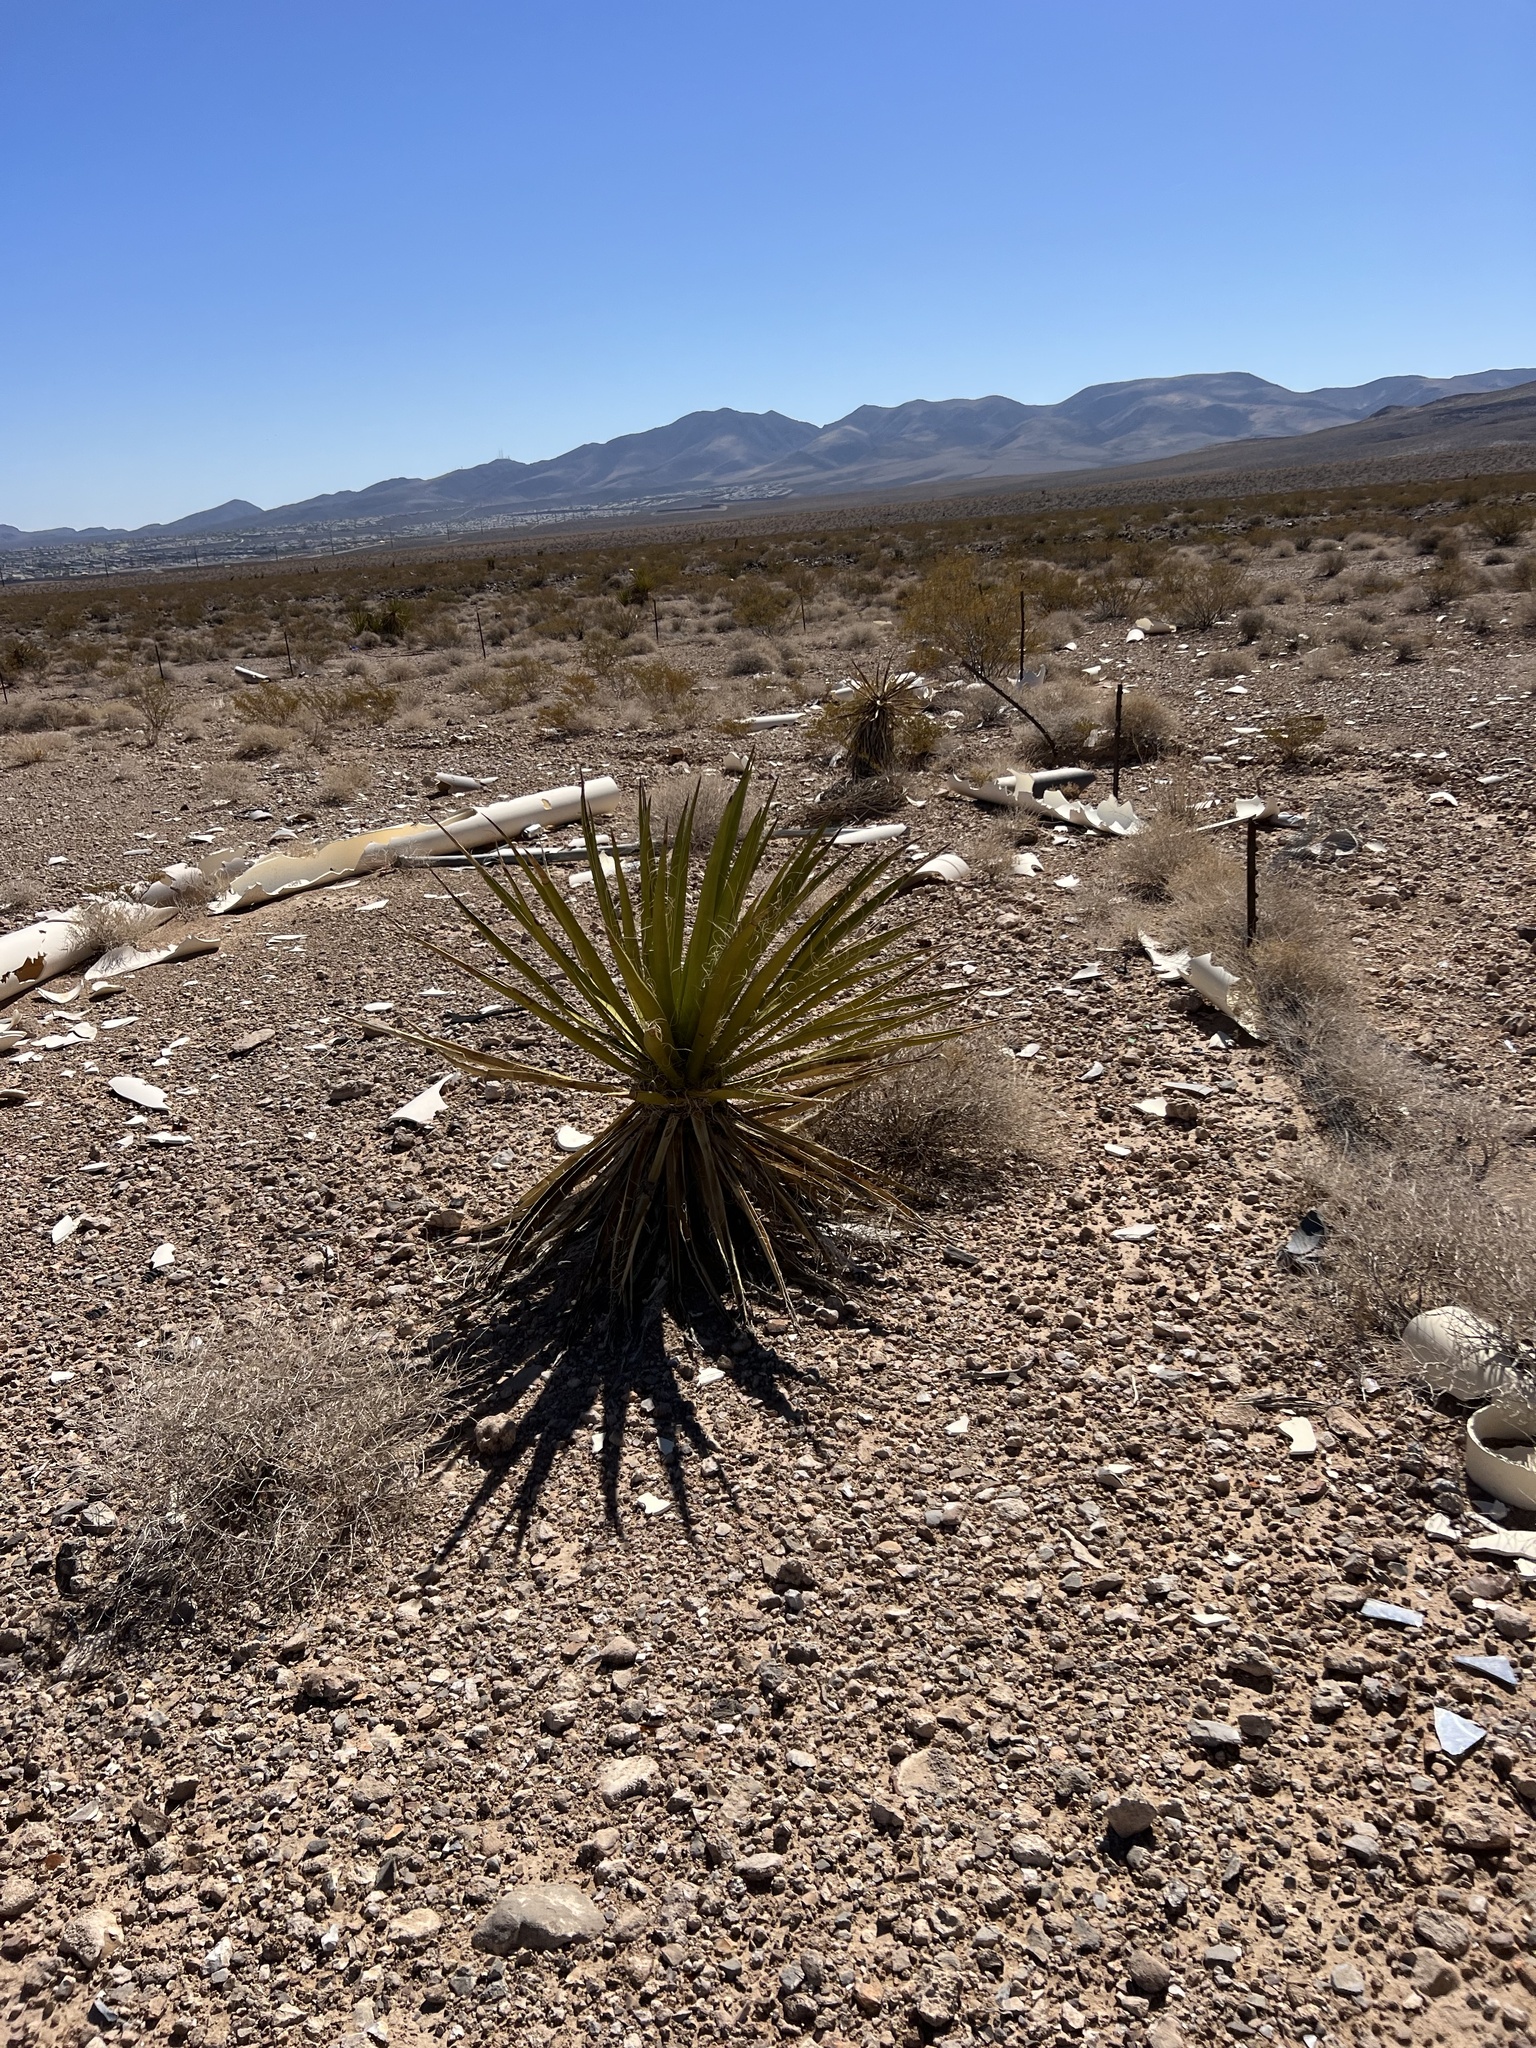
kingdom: Plantae
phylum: Tracheophyta
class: Liliopsida
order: Asparagales
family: Asparagaceae
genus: Yucca
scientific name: Yucca schidigera
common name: Mojave yucca
